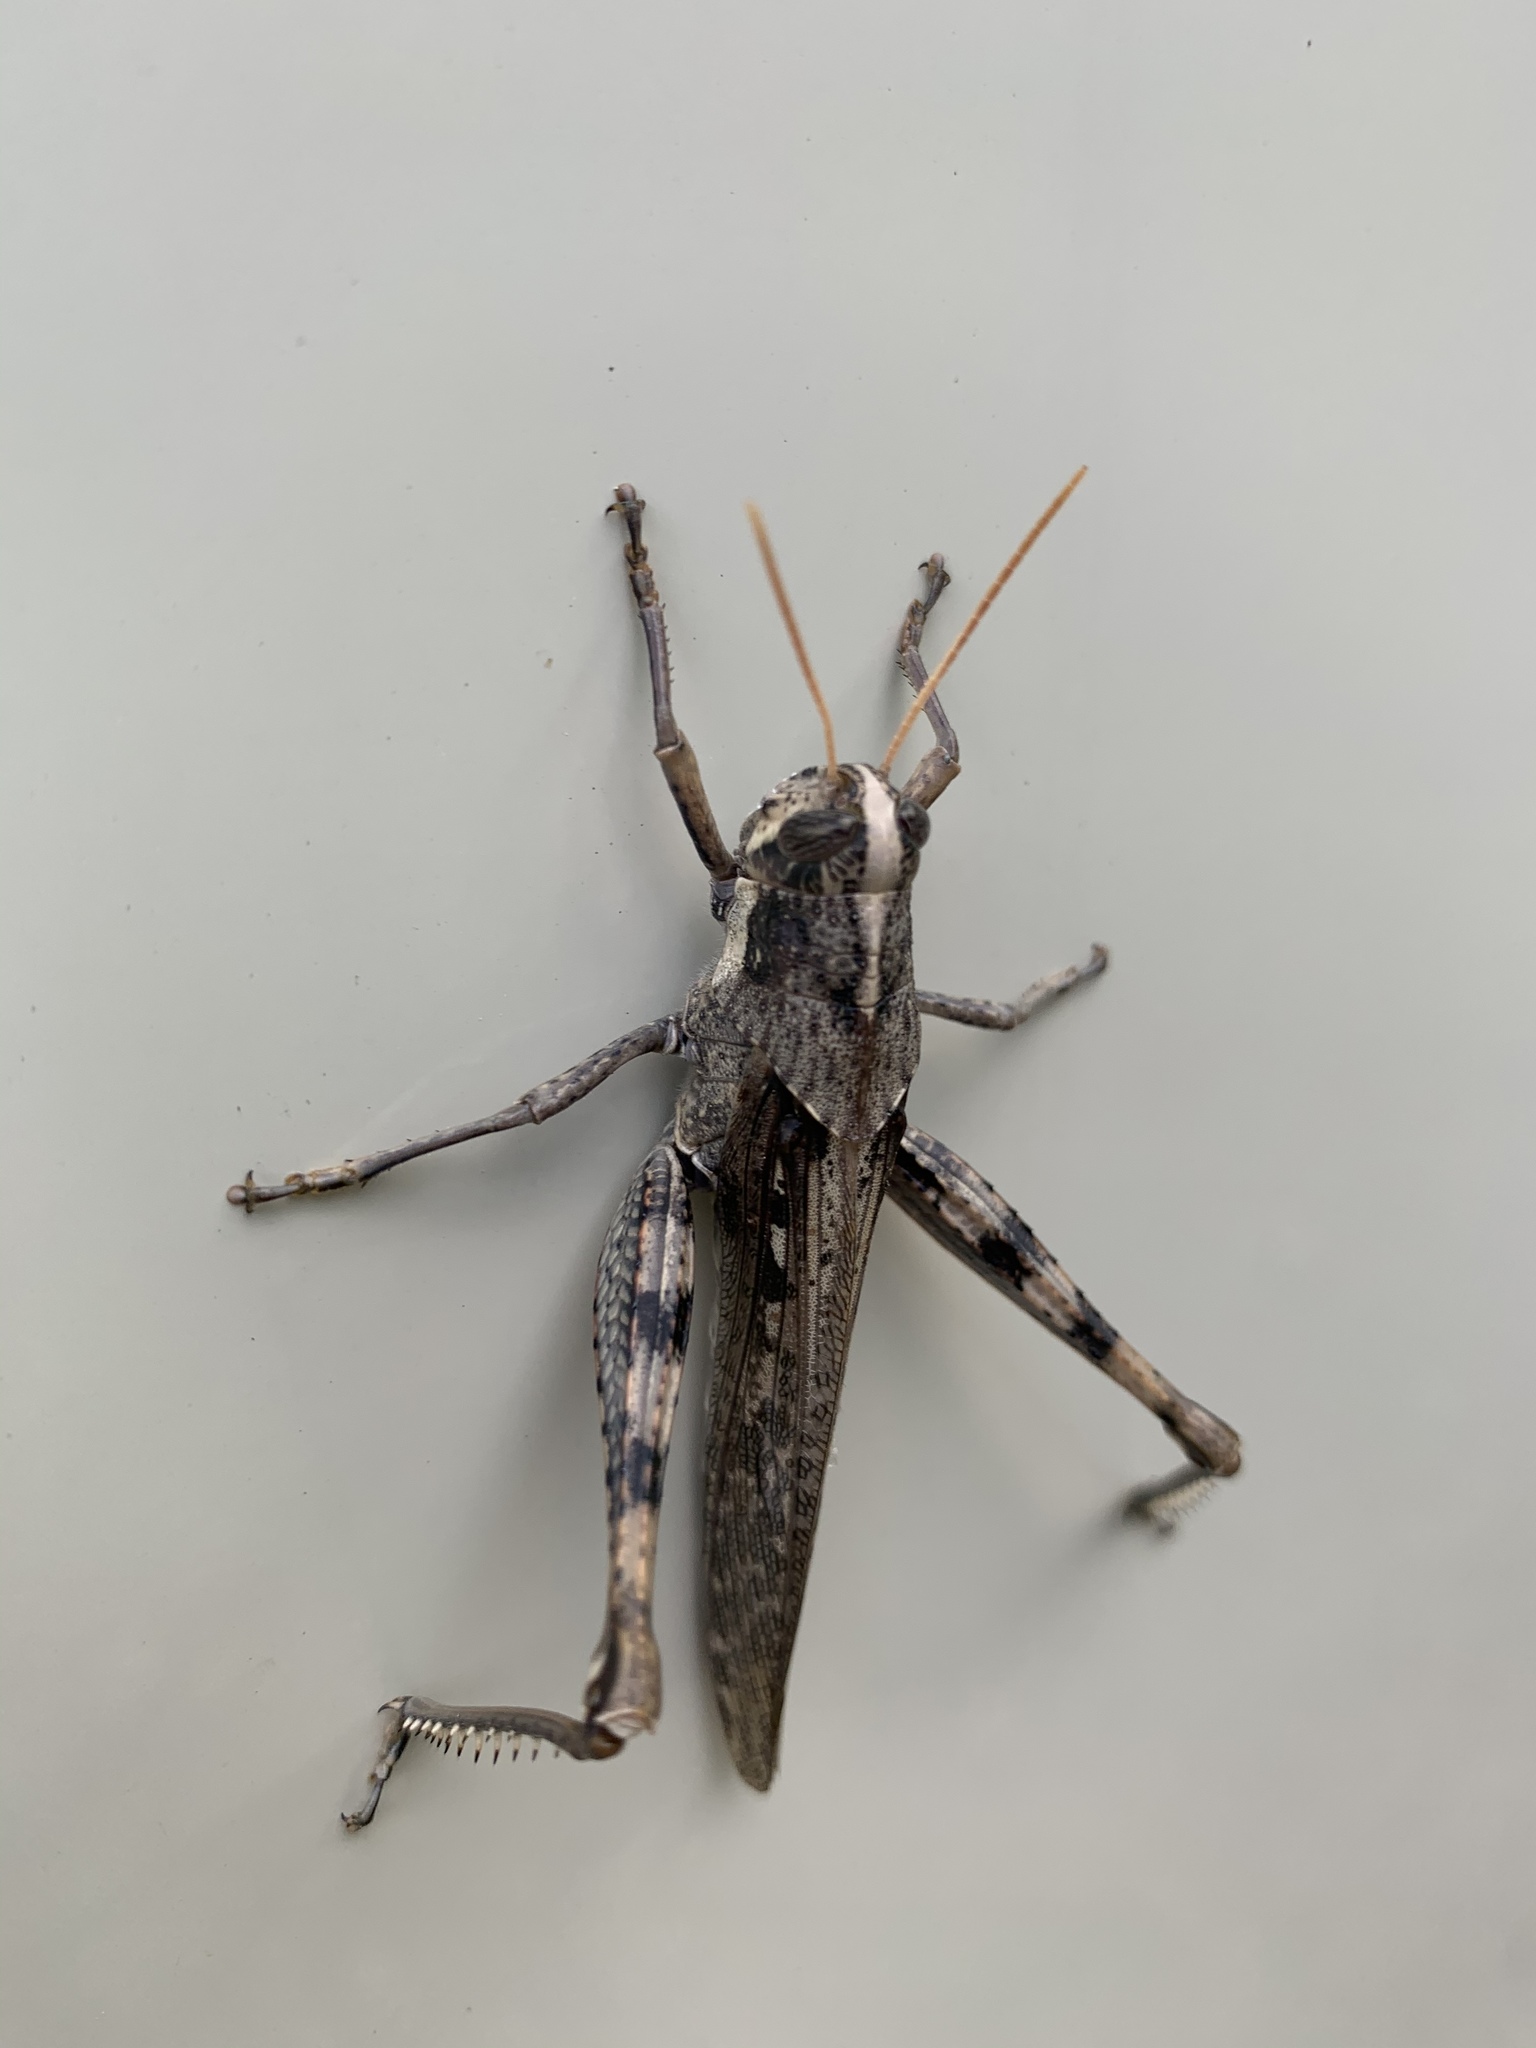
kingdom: Animalia
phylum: Arthropoda
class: Insecta
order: Orthoptera
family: Acrididae
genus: Schistocerca
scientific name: Schistocerca nitens
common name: Vagrant grasshopper
